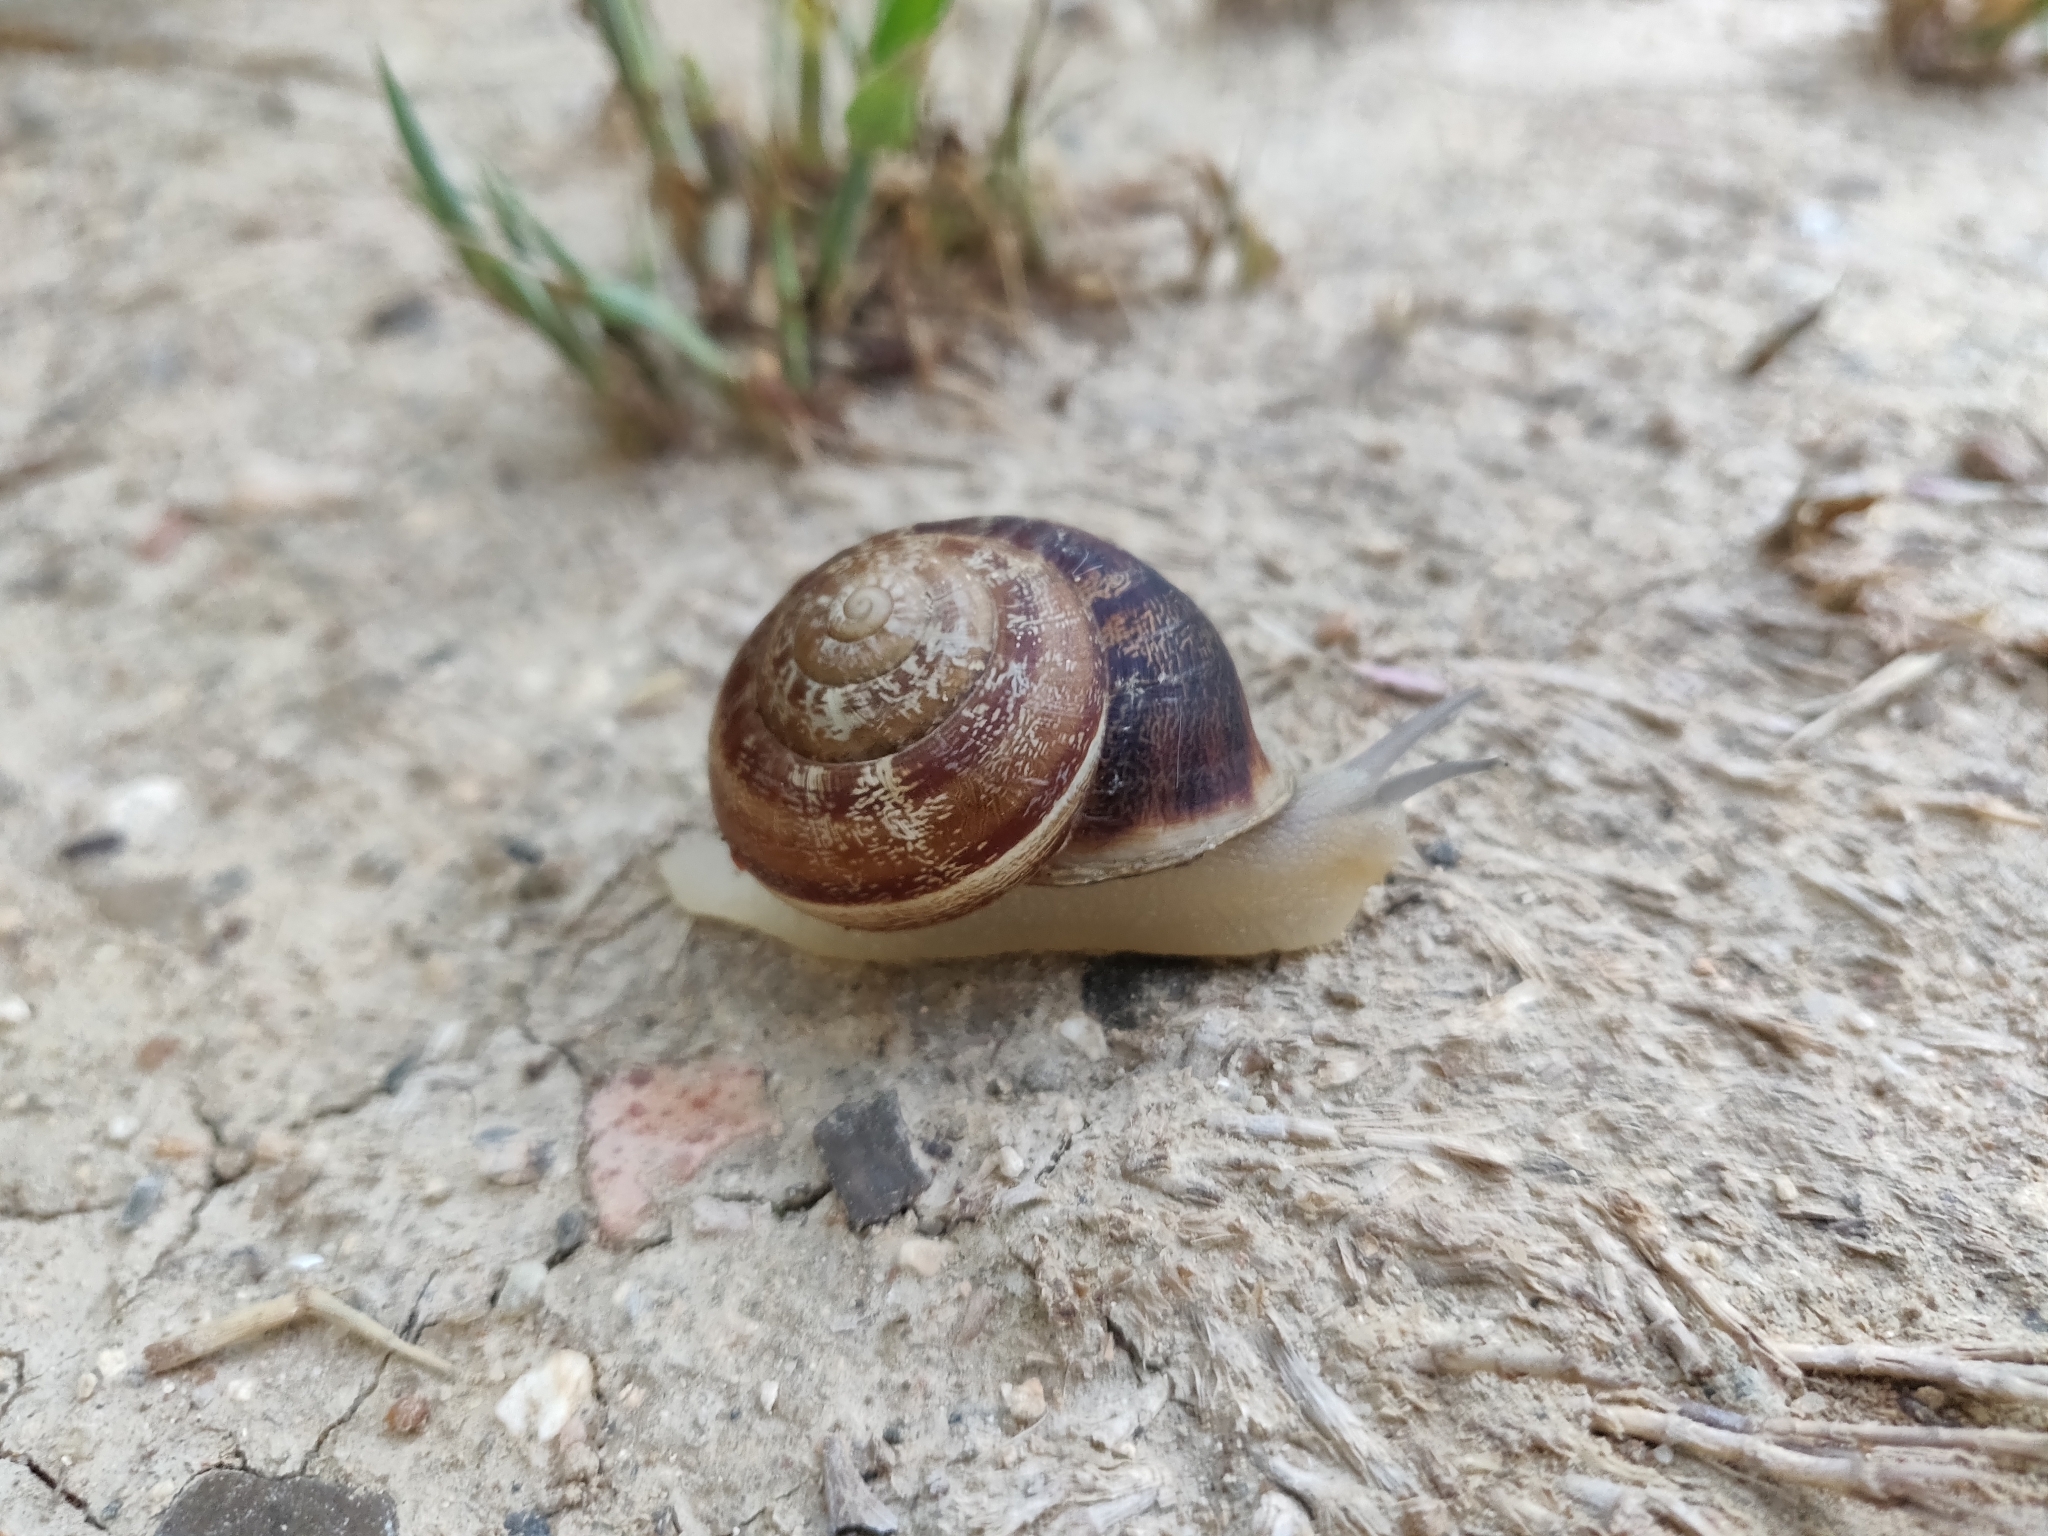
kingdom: Animalia
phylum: Mollusca
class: Gastropoda
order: Stylommatophora
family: Helicidae
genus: Eobania
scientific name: Eobania vermiculata
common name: Chocolateband snail
